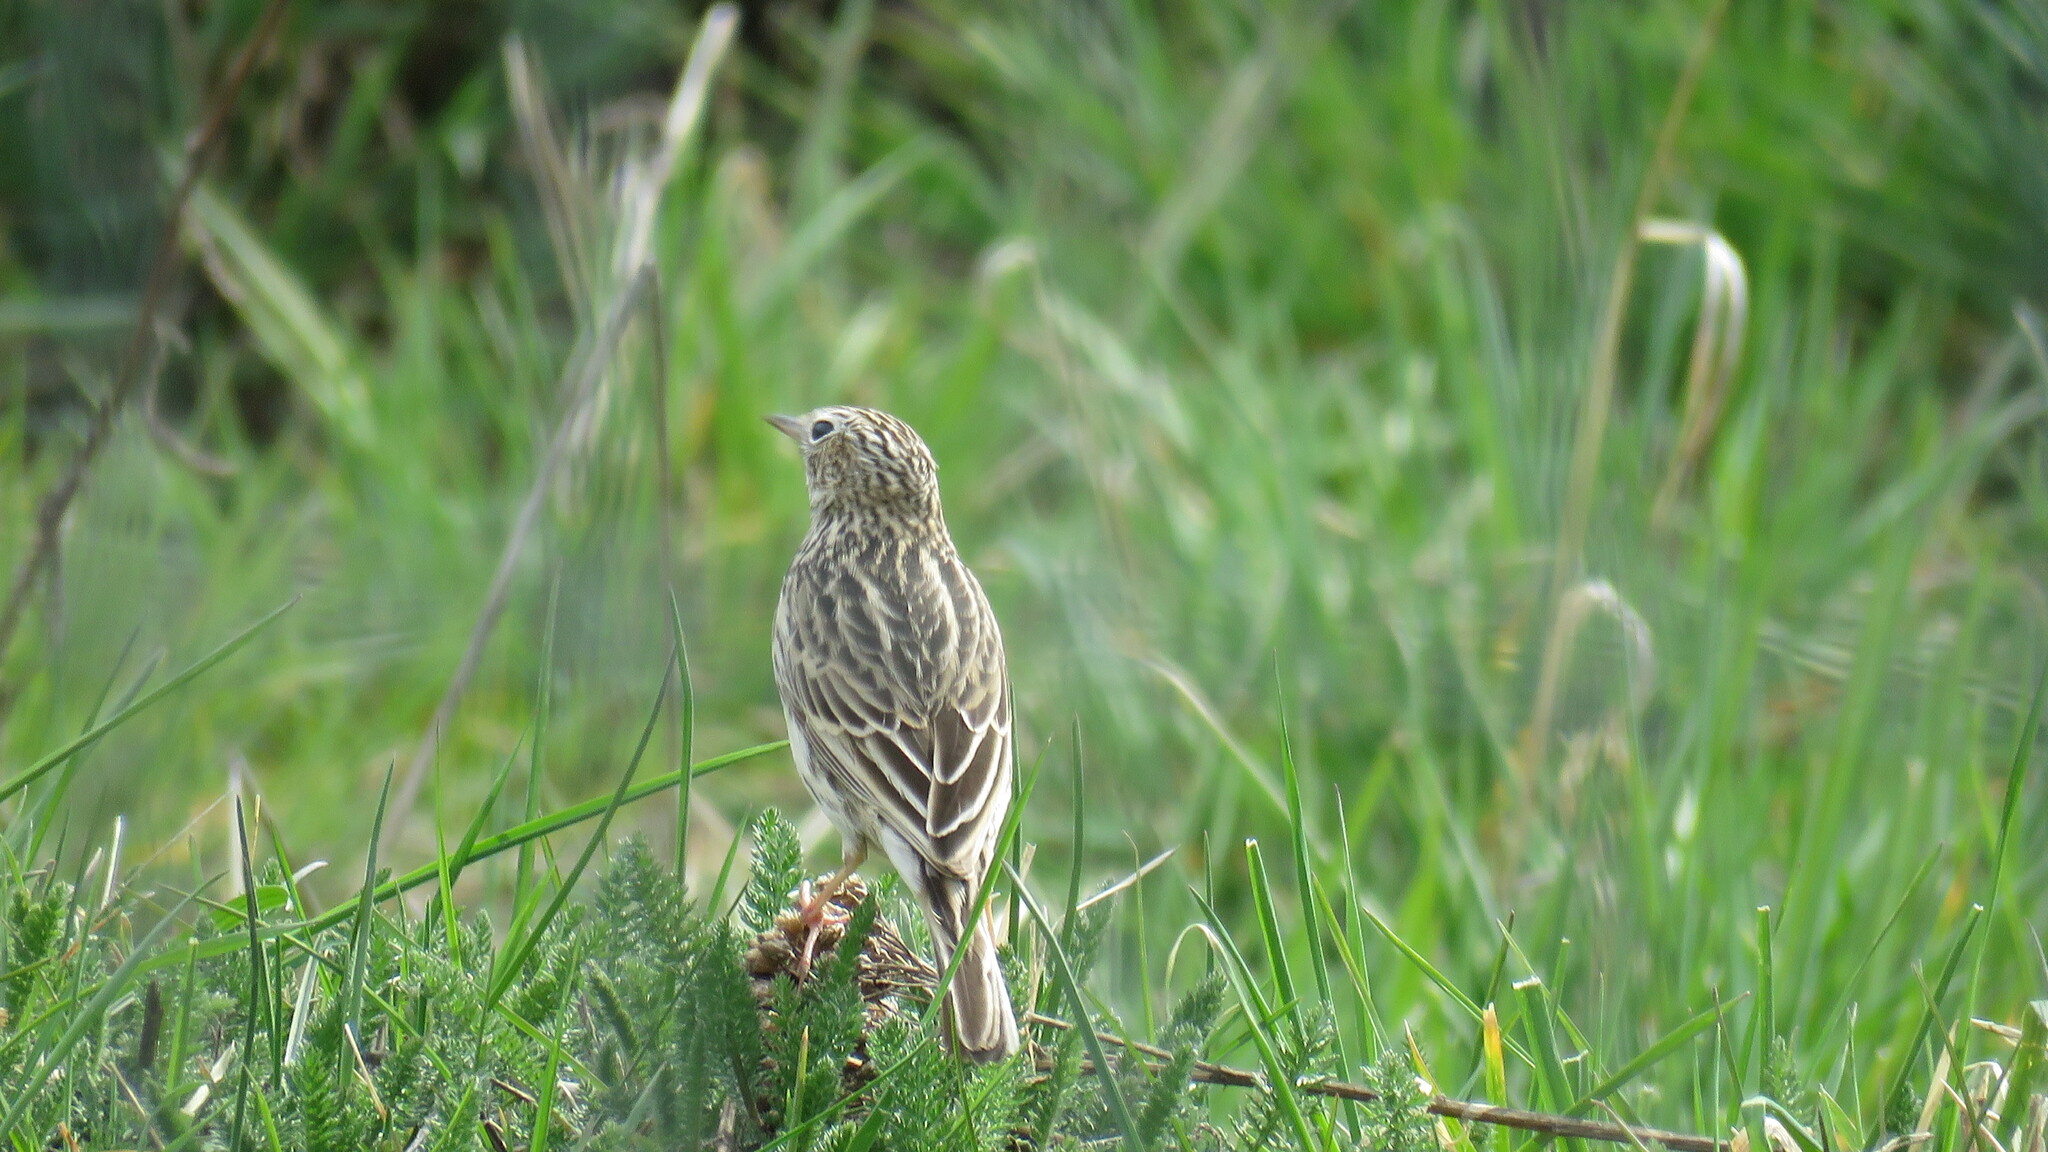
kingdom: Animalia
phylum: Chordata
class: Aves
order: Passeriformes
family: Motacillidae
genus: Anthus
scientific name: Anthus correndera
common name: Correndera pipit
